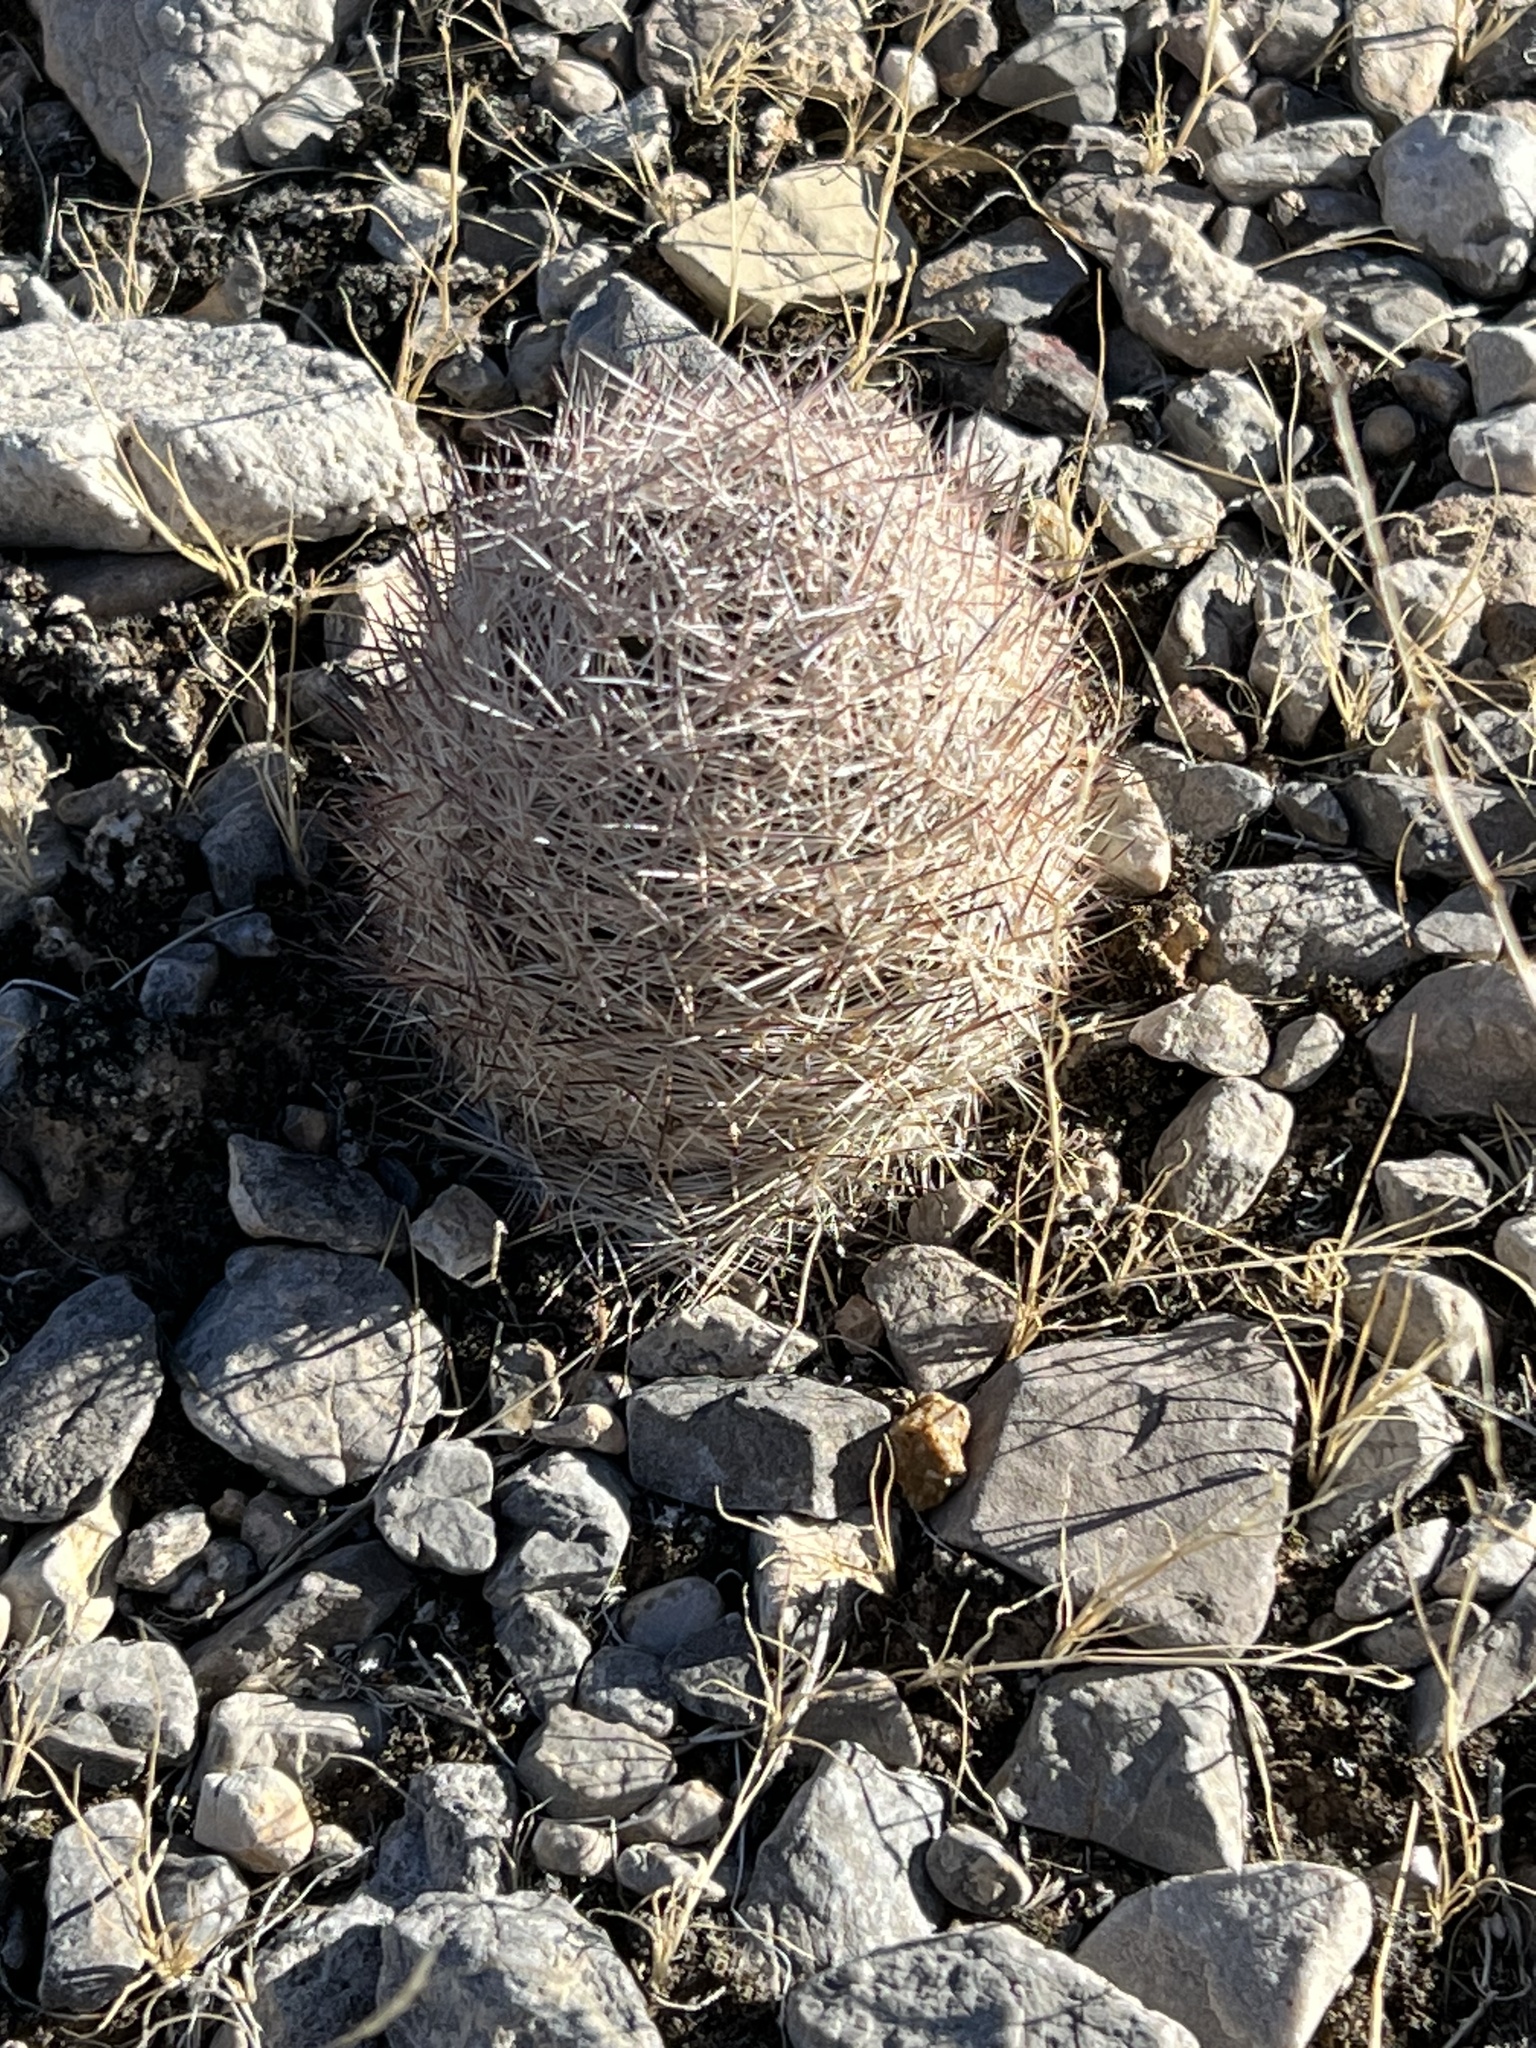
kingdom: Plantae
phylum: Tracheophyta
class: Magnoliopsida
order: Caryophyllales
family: Cactaceae
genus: Pelecyphora
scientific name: Pelecyphora dasyacantha
